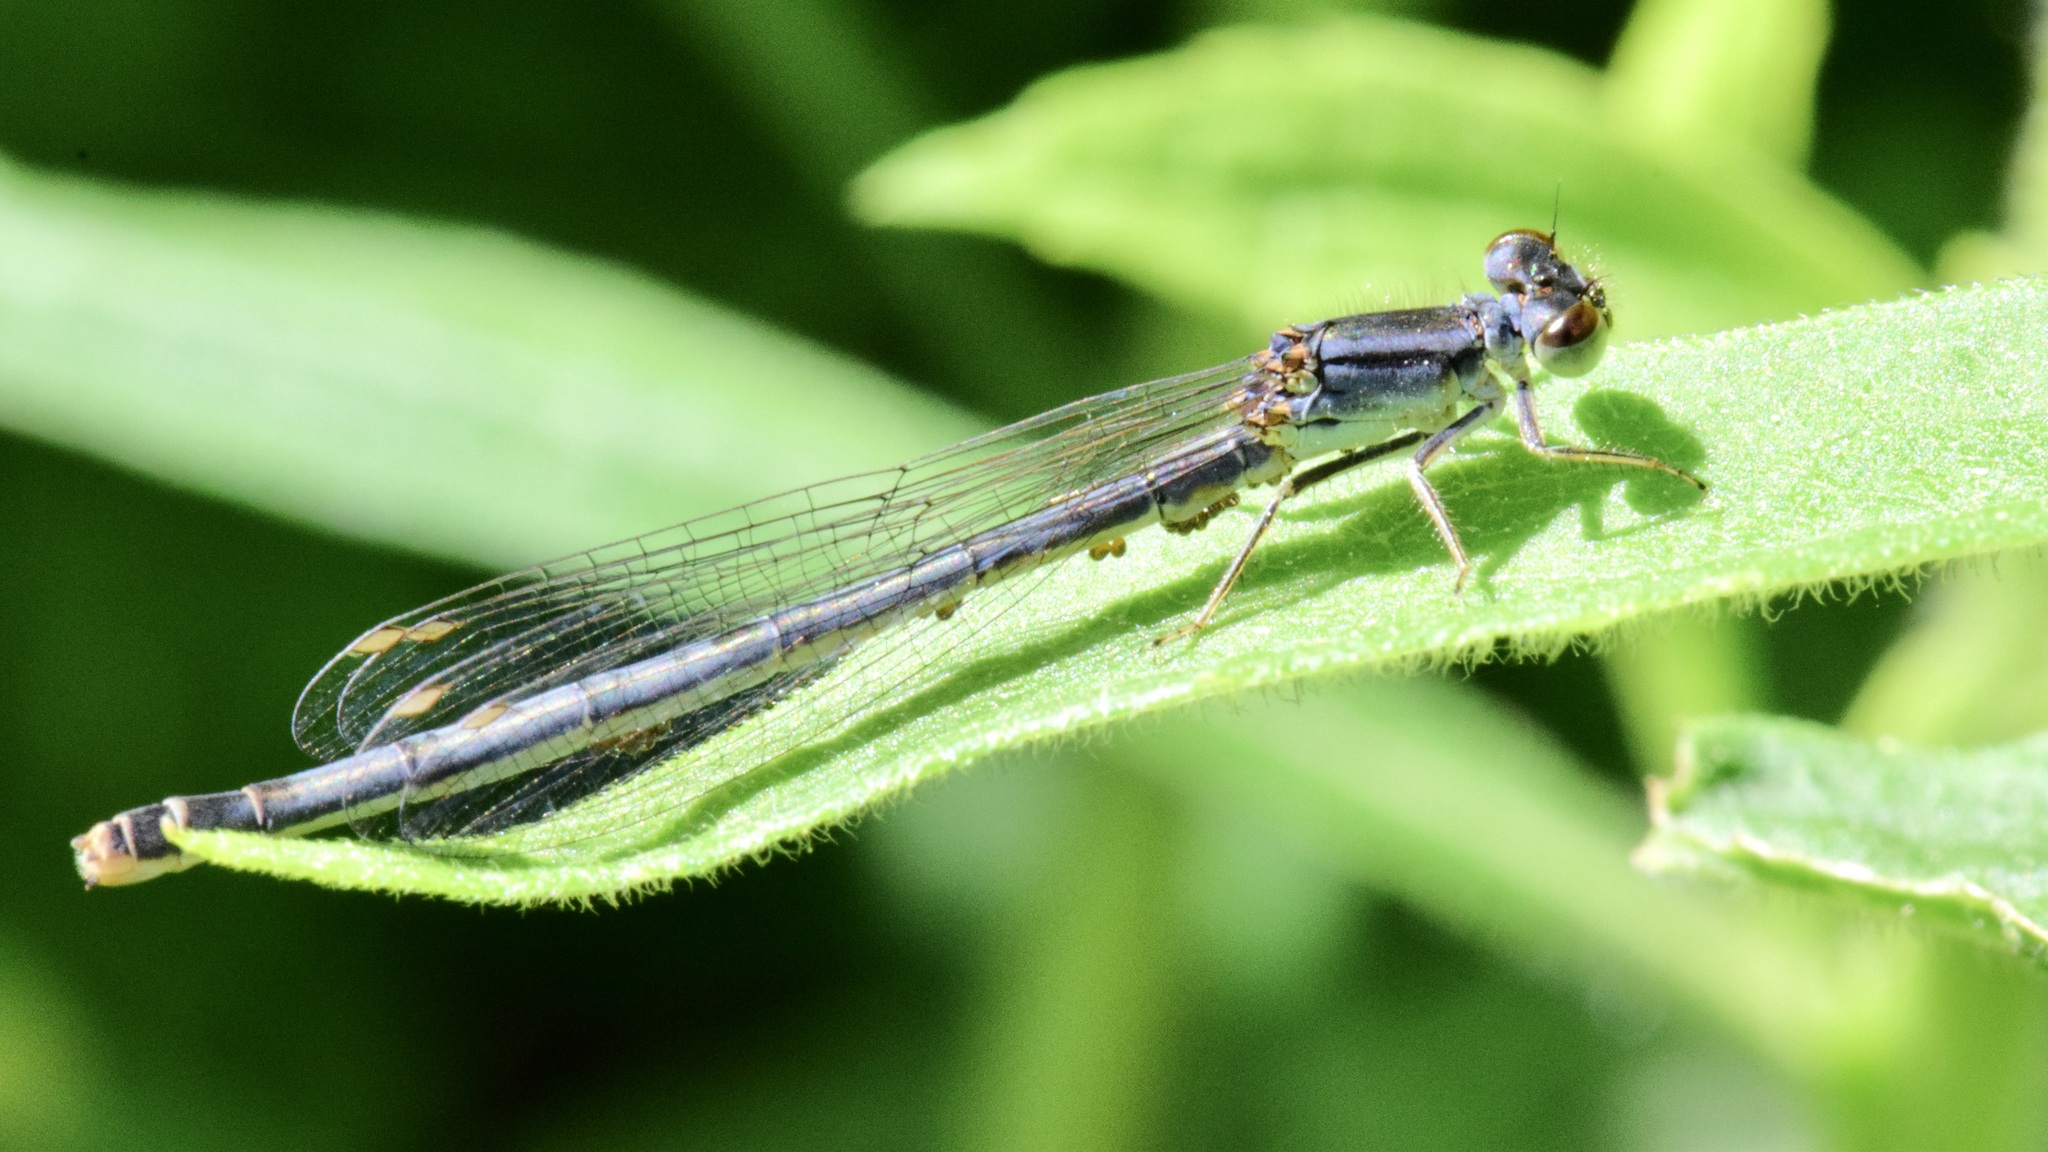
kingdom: Animalia
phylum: Arthropoda
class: Insecta
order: Odonata
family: Coenagrionidae
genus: Ischnura
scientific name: Ischnura verticalis
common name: Eastern forktail
